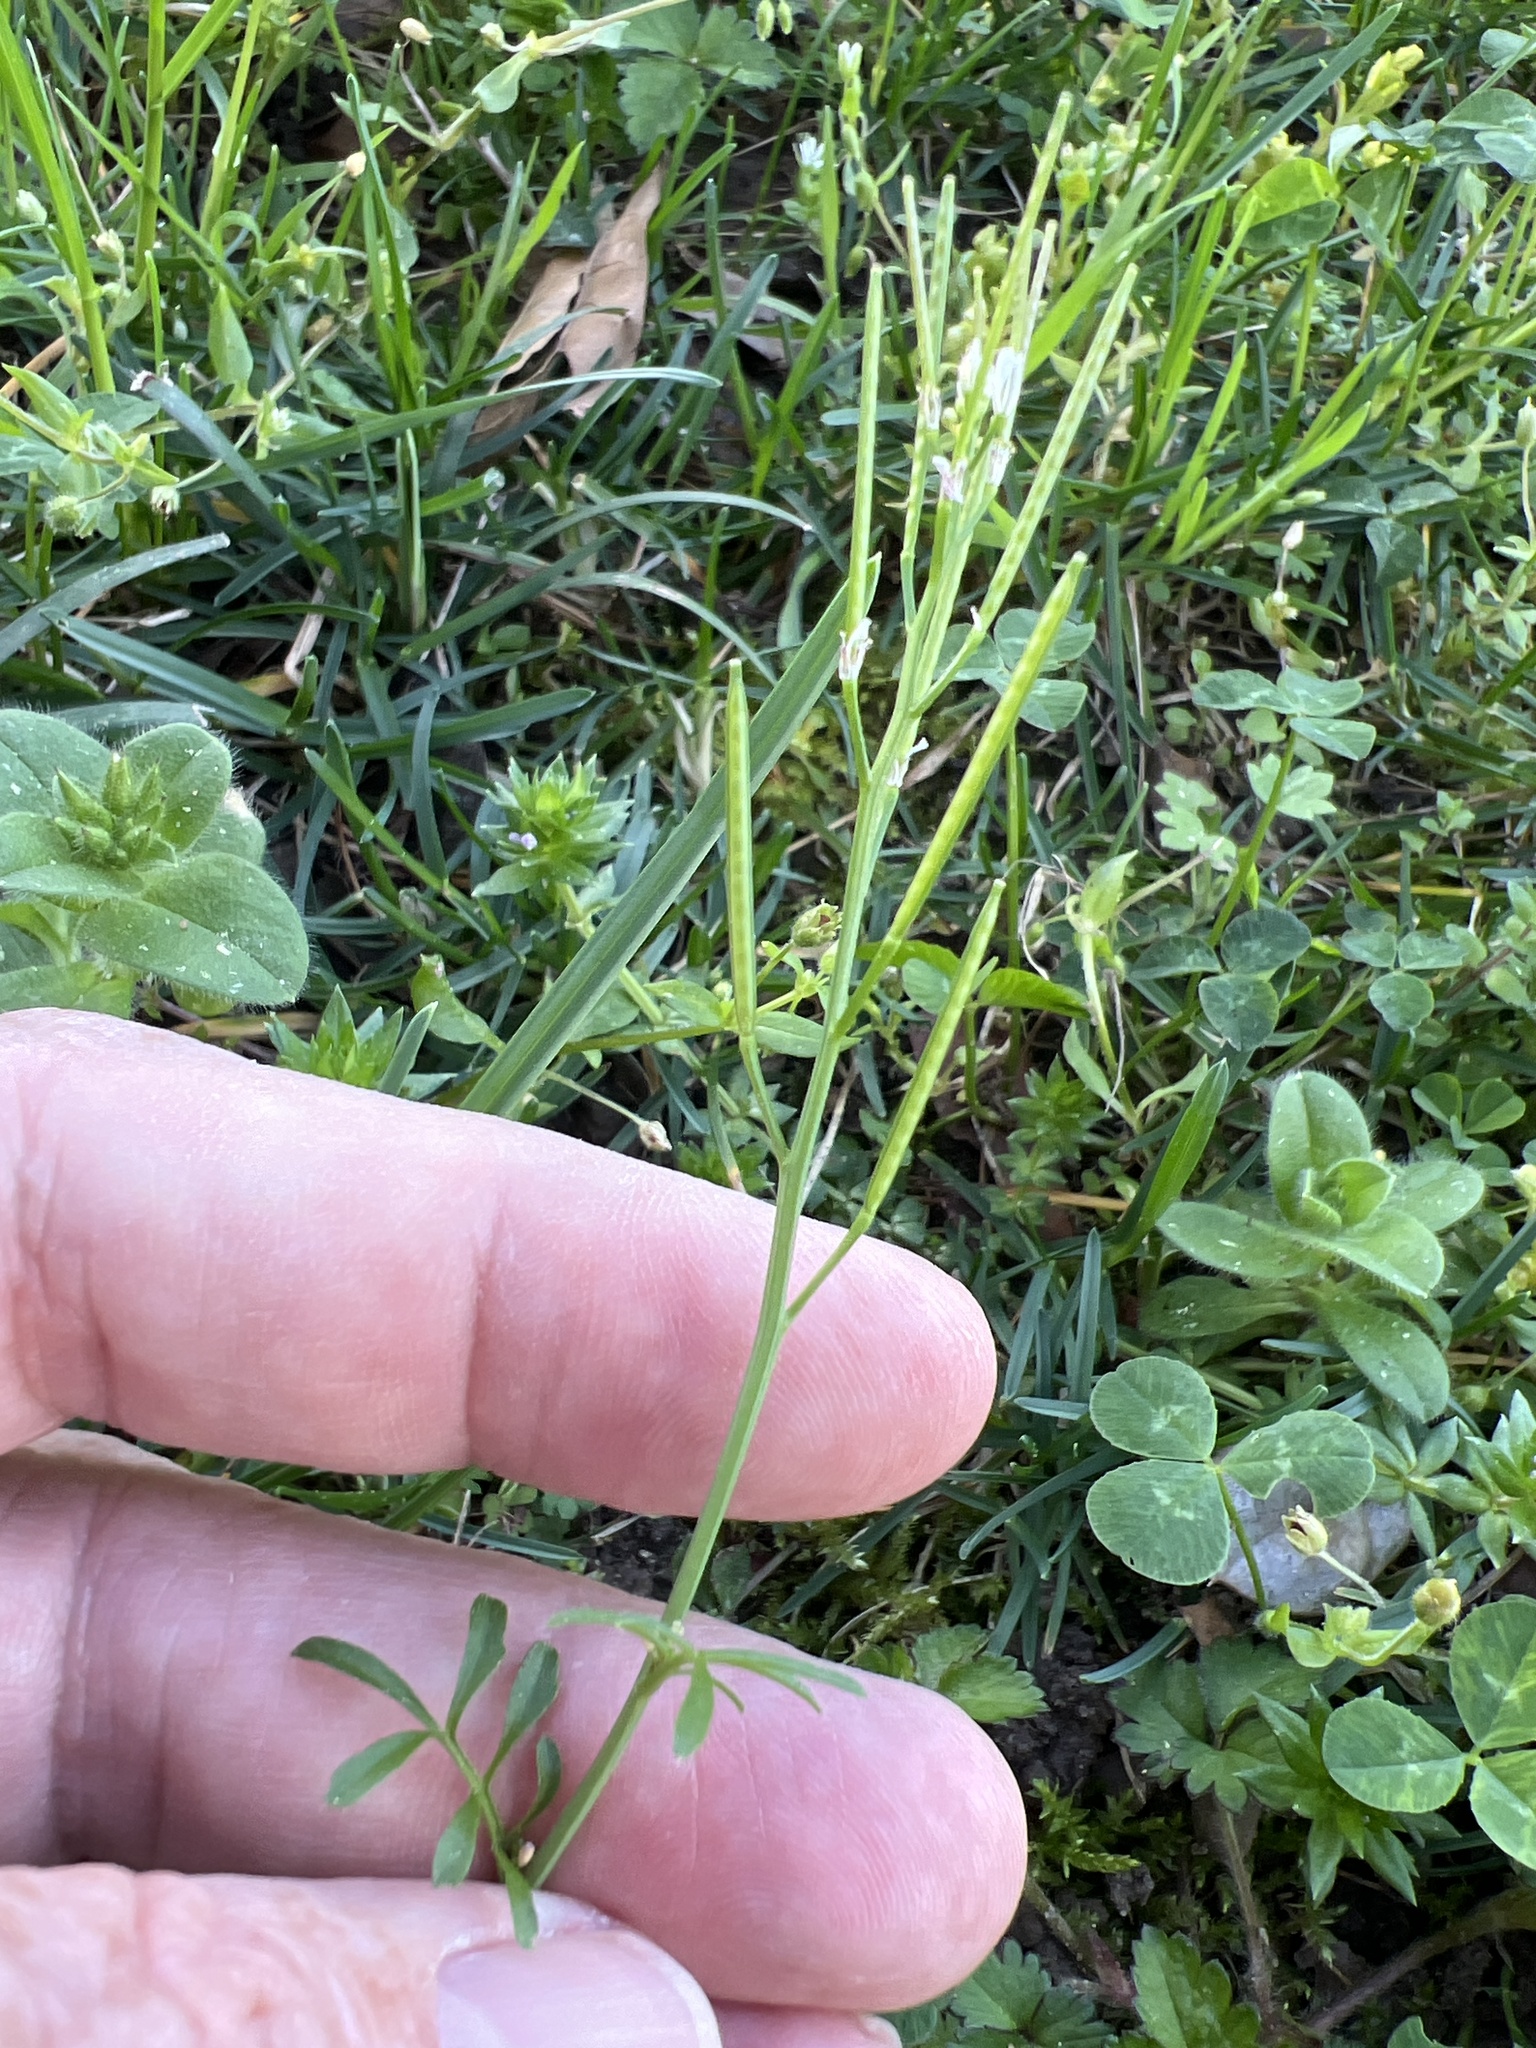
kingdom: Plantae
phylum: Tracheophyta
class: Magnoliopsida
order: Brassicales
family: Brassicaceae
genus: Cardamine
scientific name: Cardamine hirsuta
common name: Hairy bittercress
